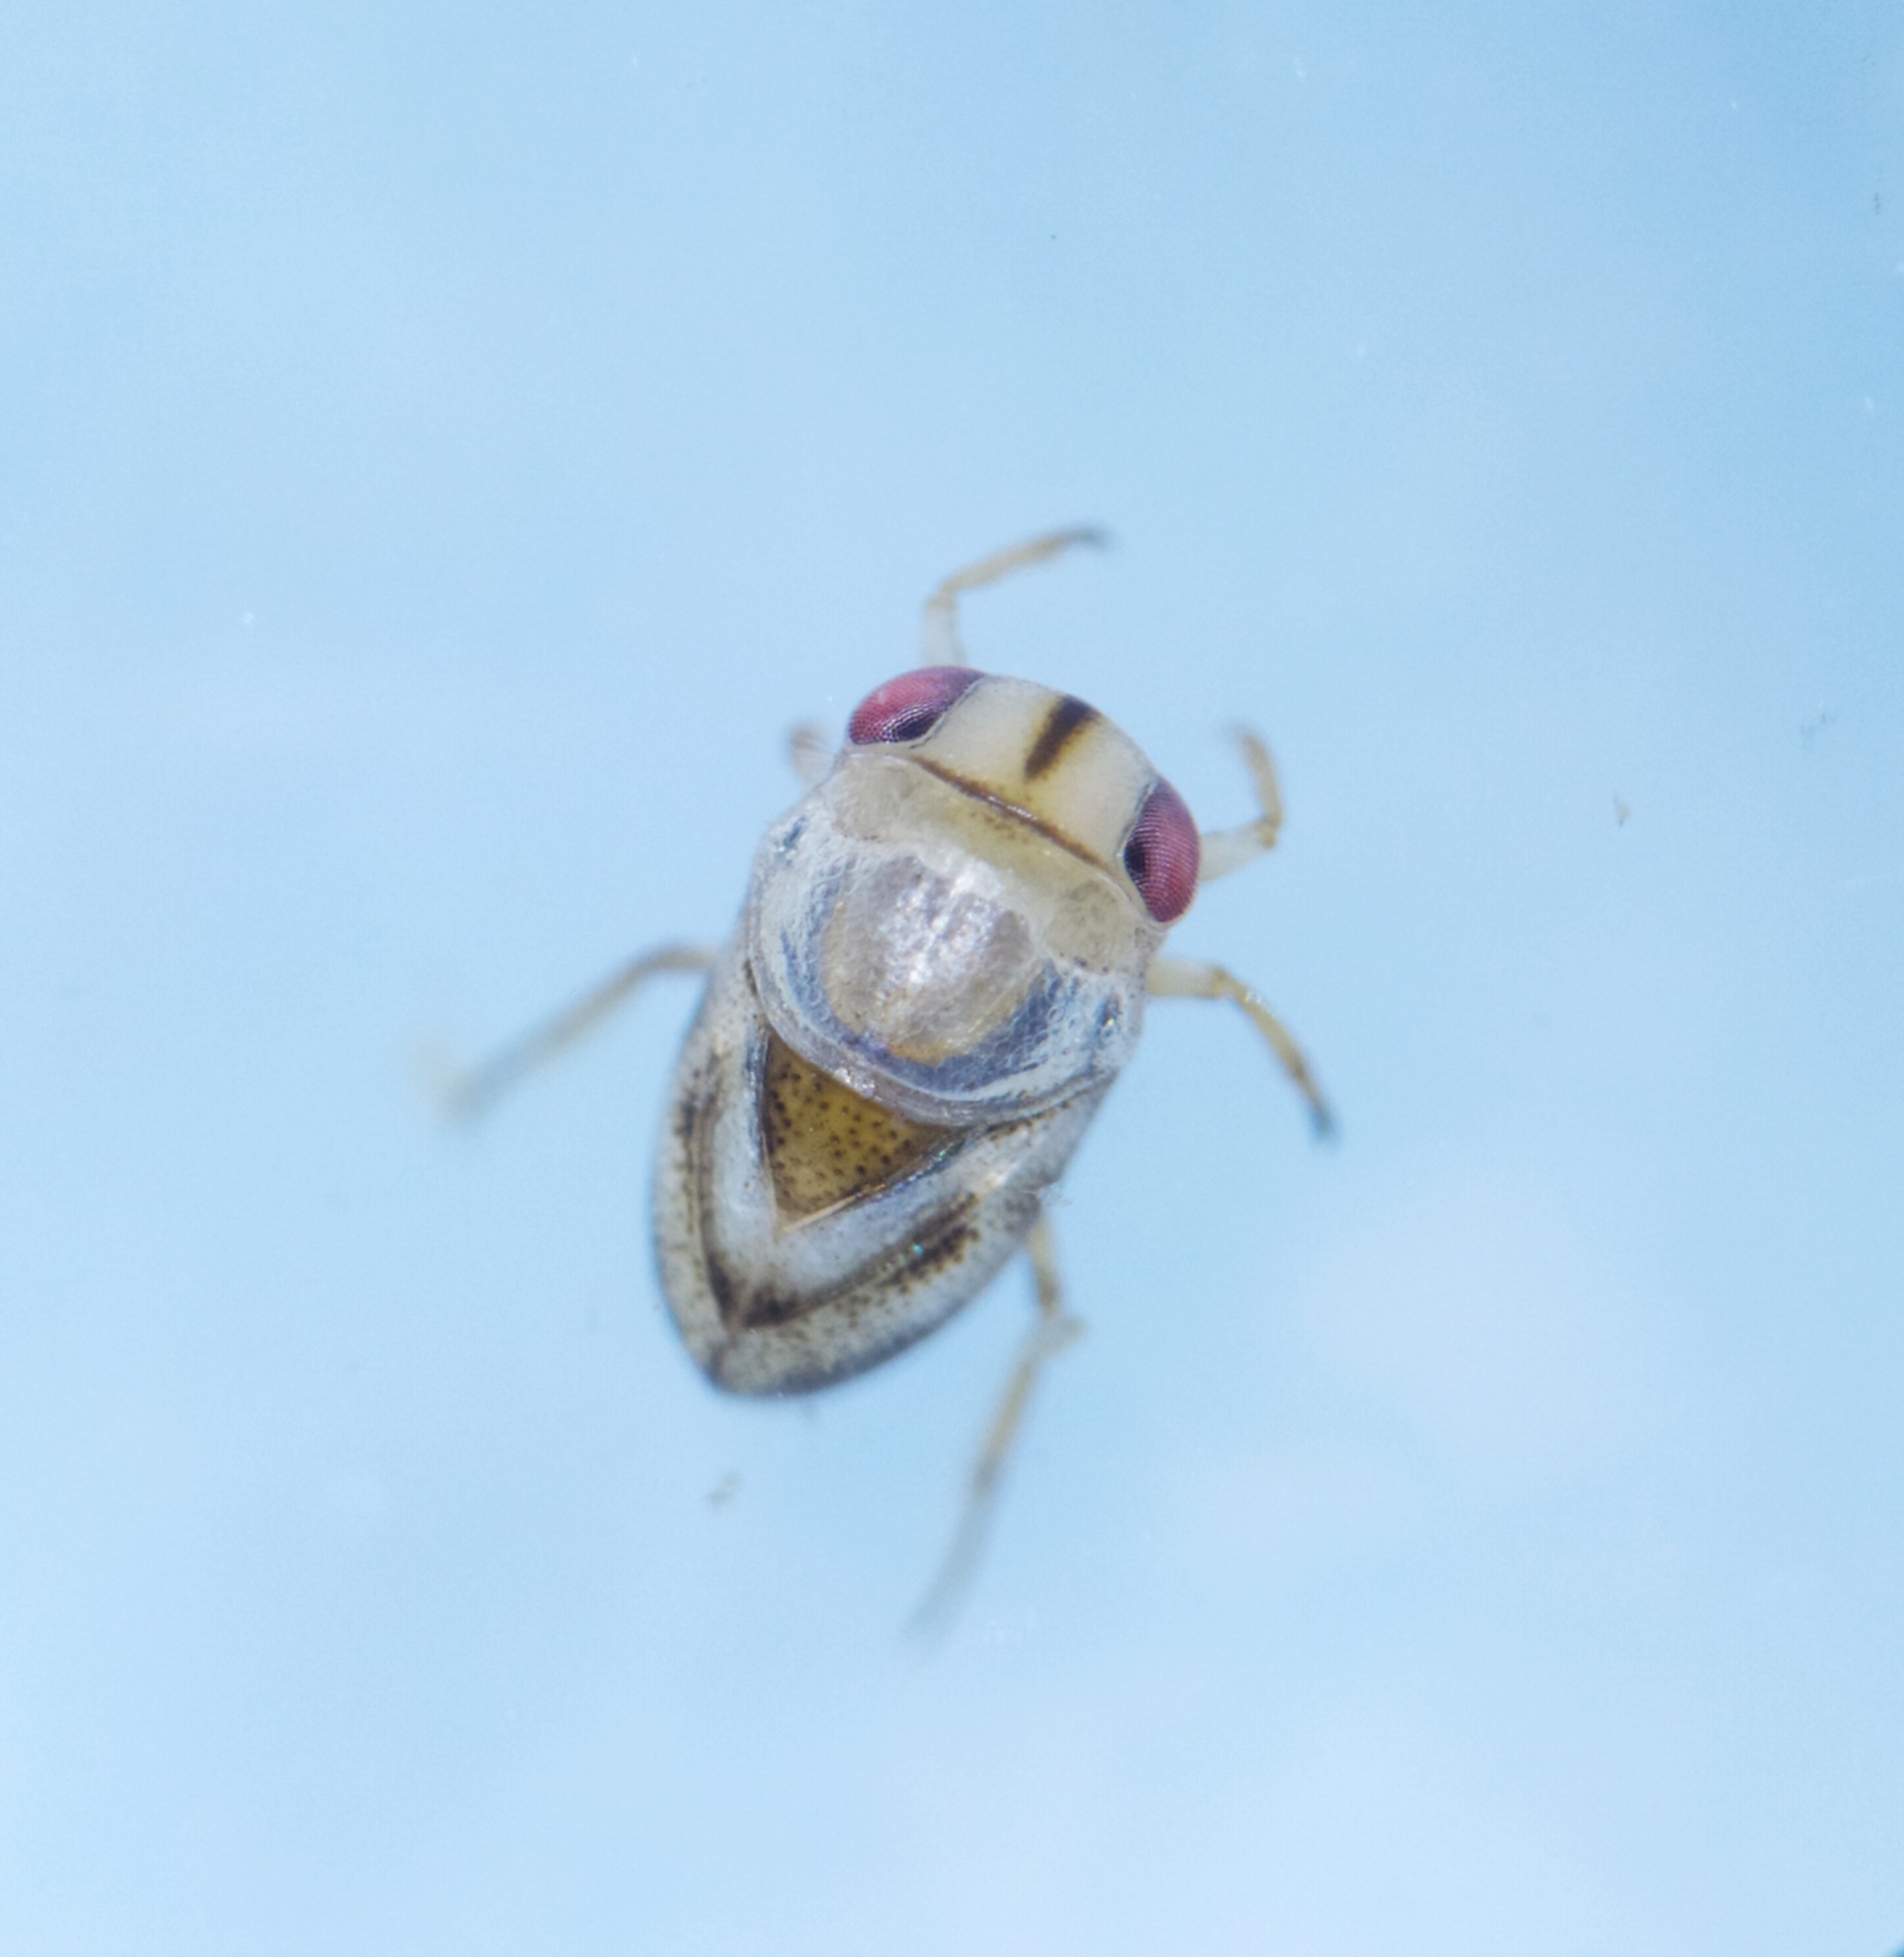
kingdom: Animalia
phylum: Arthropoda
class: Insecta
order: Hemiptera
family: Pleidae
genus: Plea
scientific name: Plea minutissima
